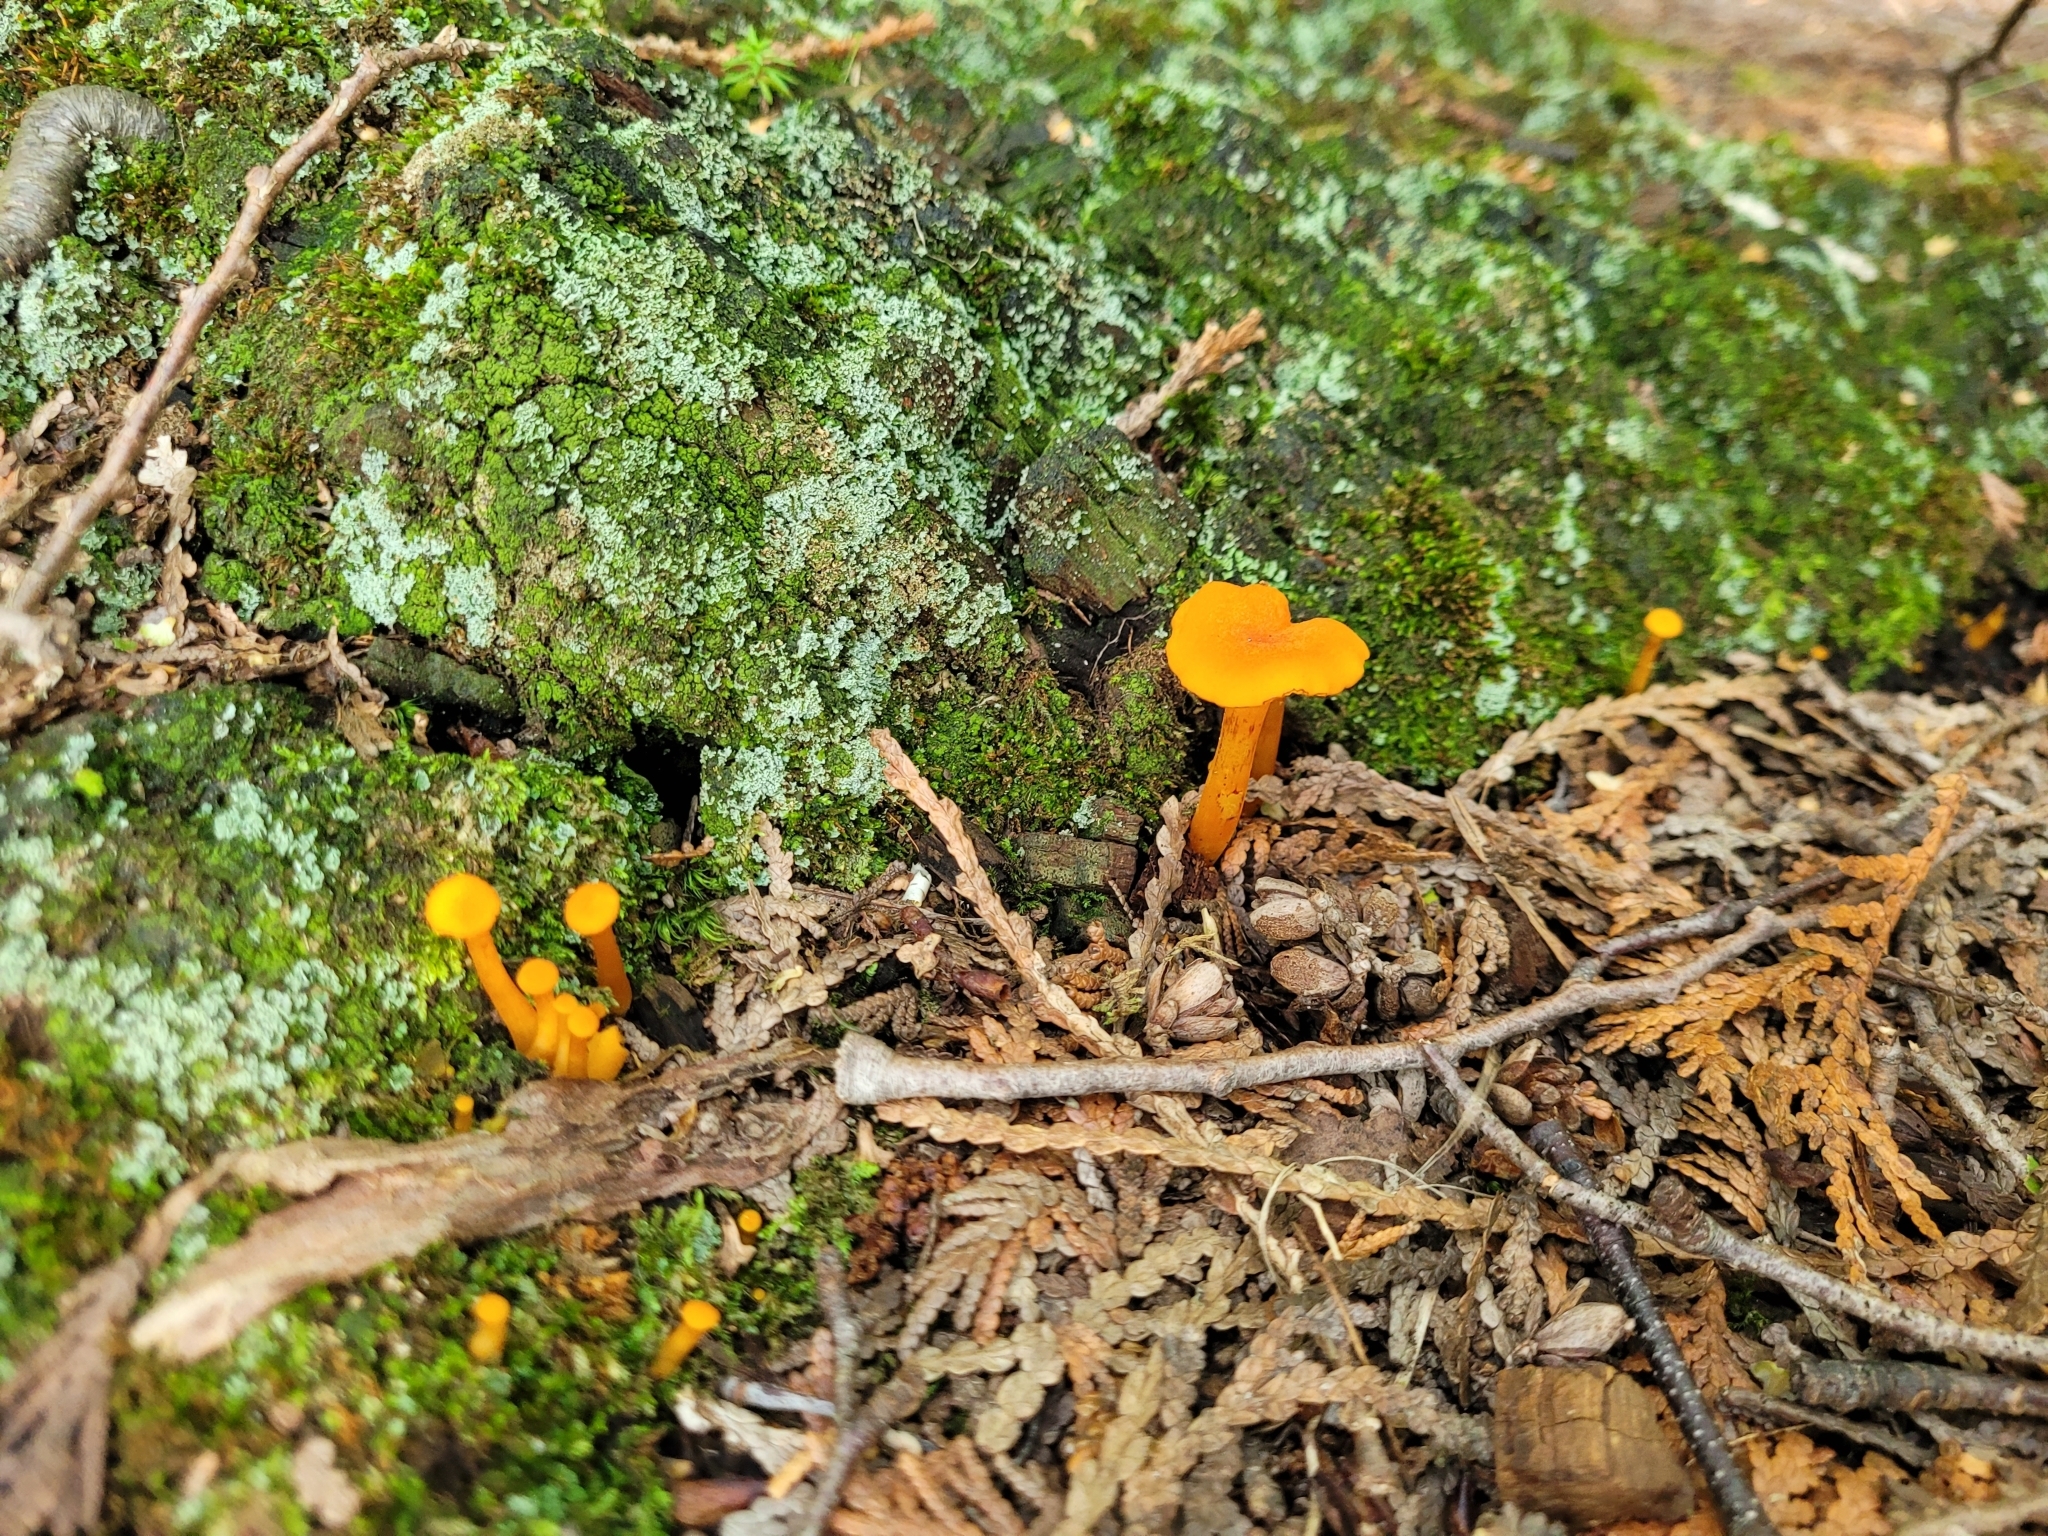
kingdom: Fungi
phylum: Basidiomycota
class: Agaricomycetes
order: Agaricales
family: Hygrophoraceae
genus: Humidicutis
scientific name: Humidicutis marginata
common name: Orange gilled waxcap
